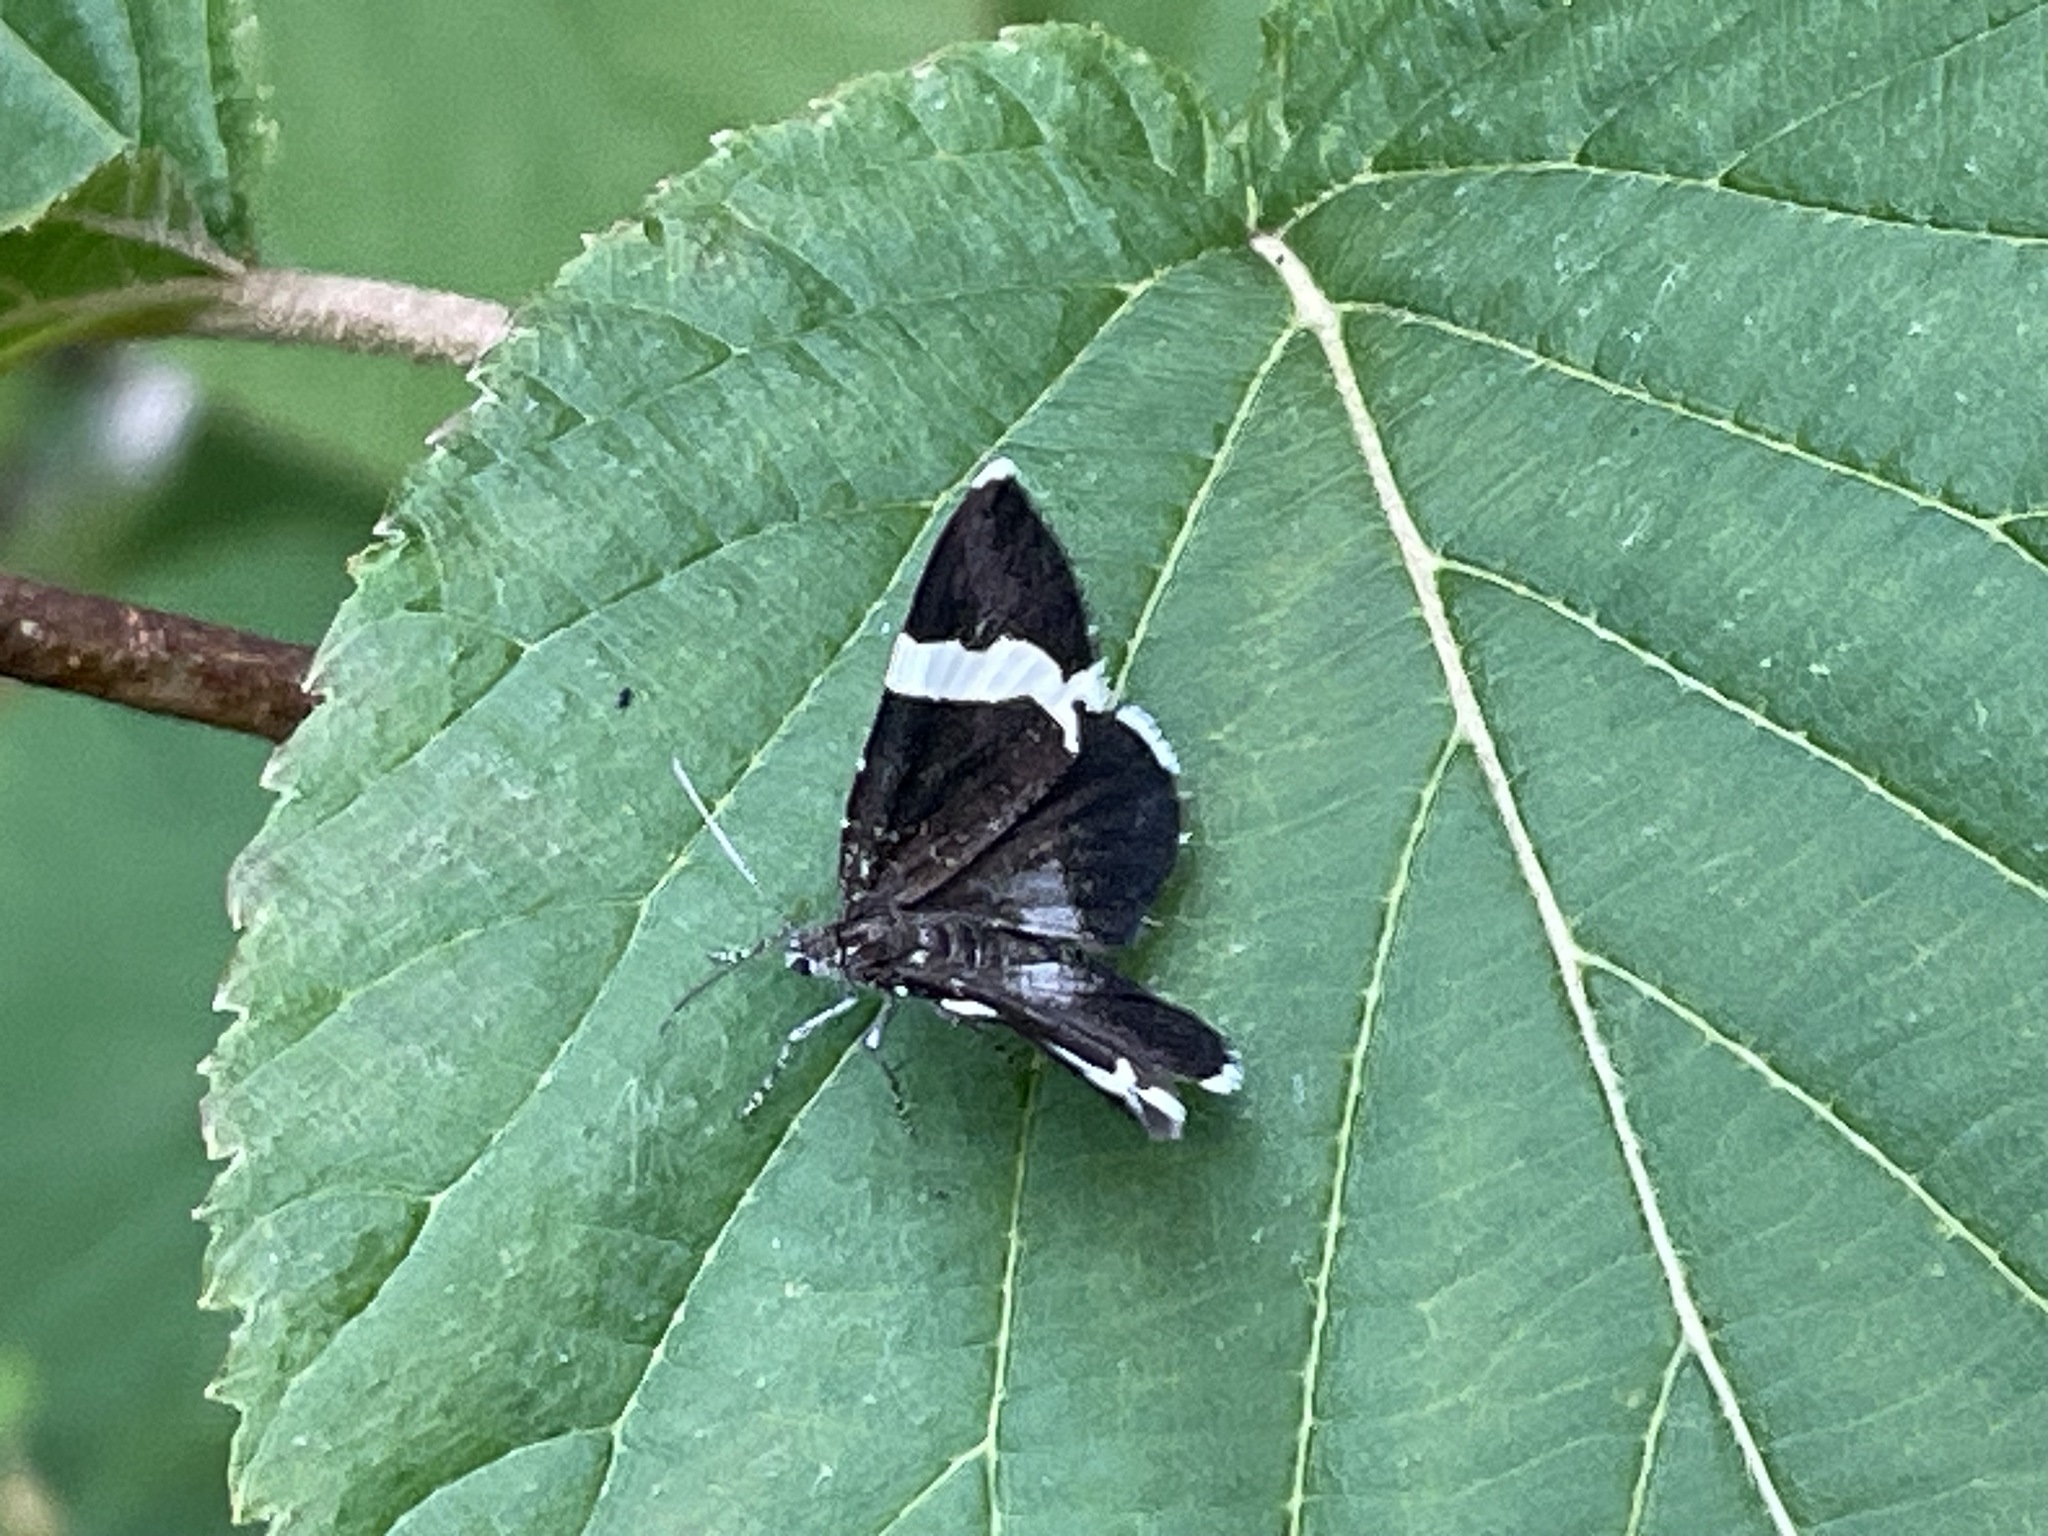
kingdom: Animalia
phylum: Arthropoda
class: Insecta
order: Lepidoptera
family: Geometridae
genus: Trichodezia
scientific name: Trichodezia albovittata
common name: White striped black
